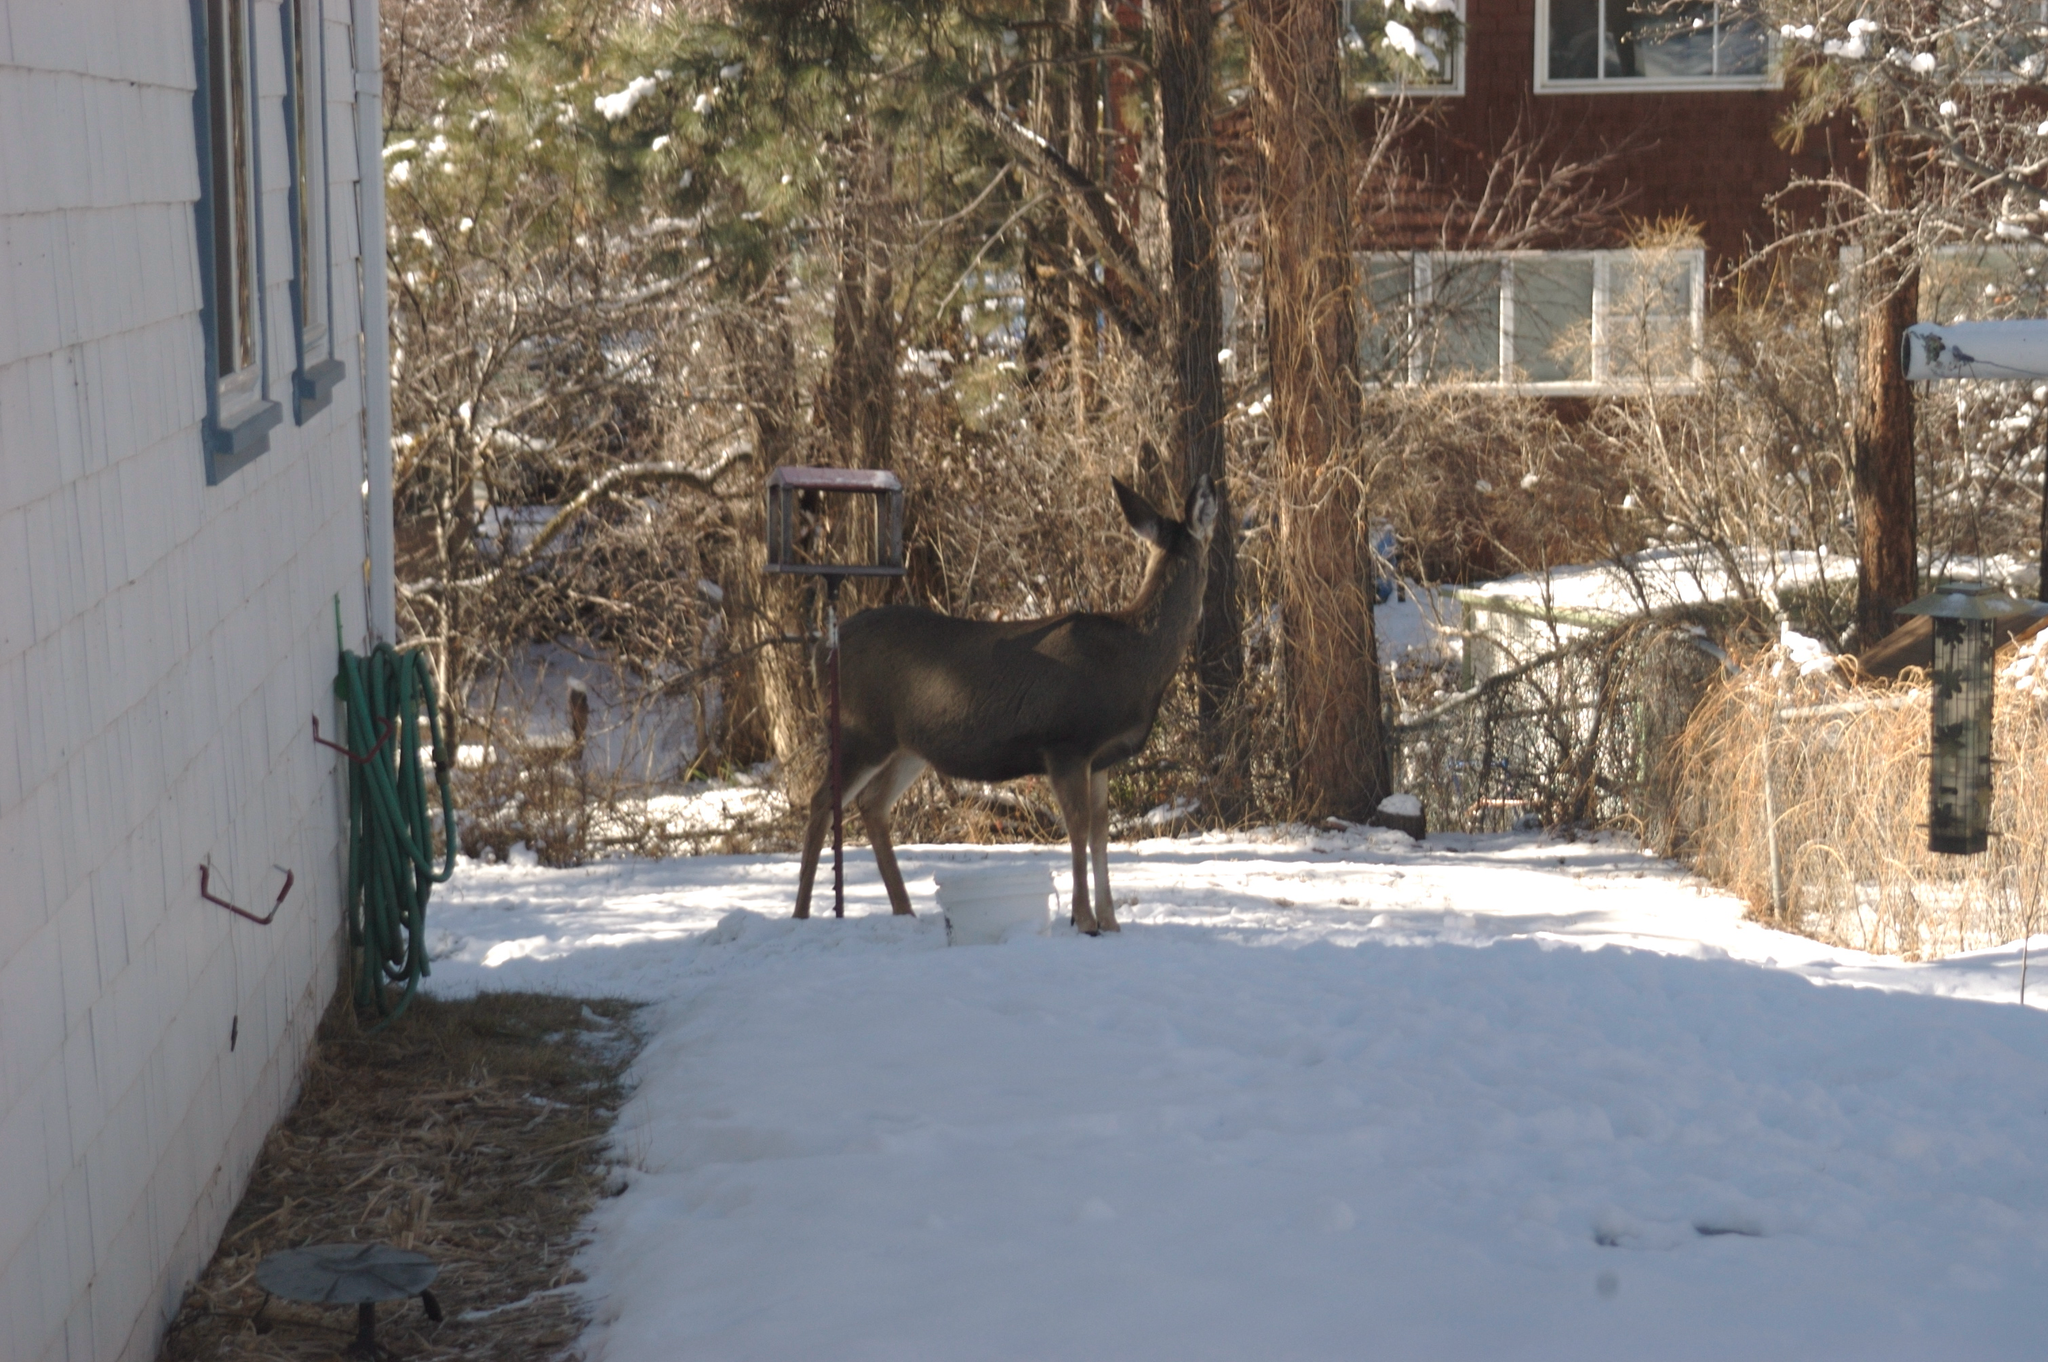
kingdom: Animalia
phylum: Chordata
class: Mammalia
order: Artiodactyla
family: Cervidae
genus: Odocoileus
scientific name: Odocoileus hemionus
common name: Mule deer
